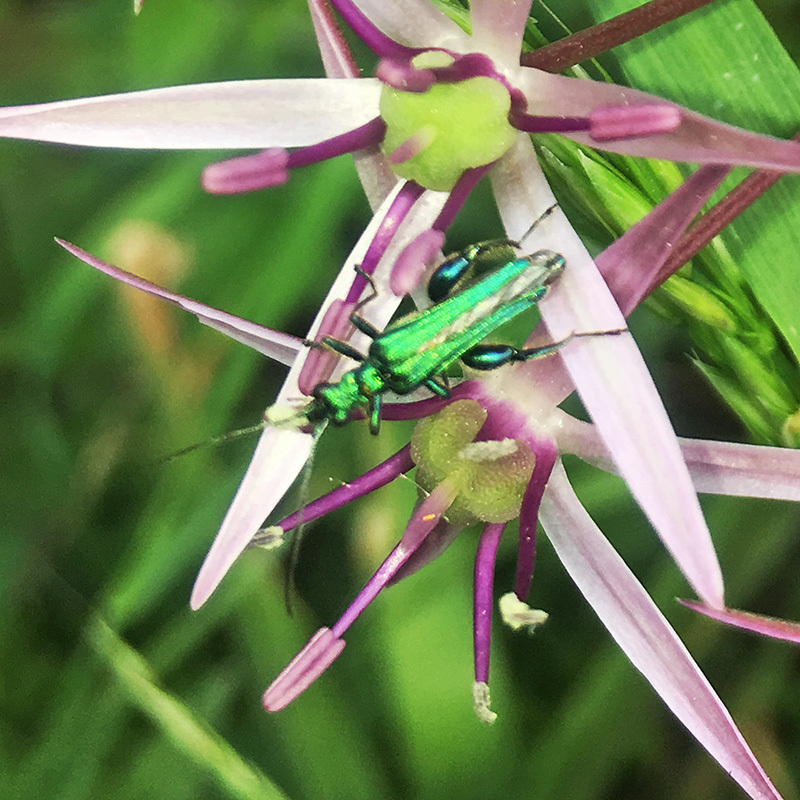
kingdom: Animalia
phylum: Arthropoda
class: Insecta
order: Coleoptera
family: Oedemeridae
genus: Oedemera
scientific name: Oedemera nobilis
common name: Swollen-thighed beetle
